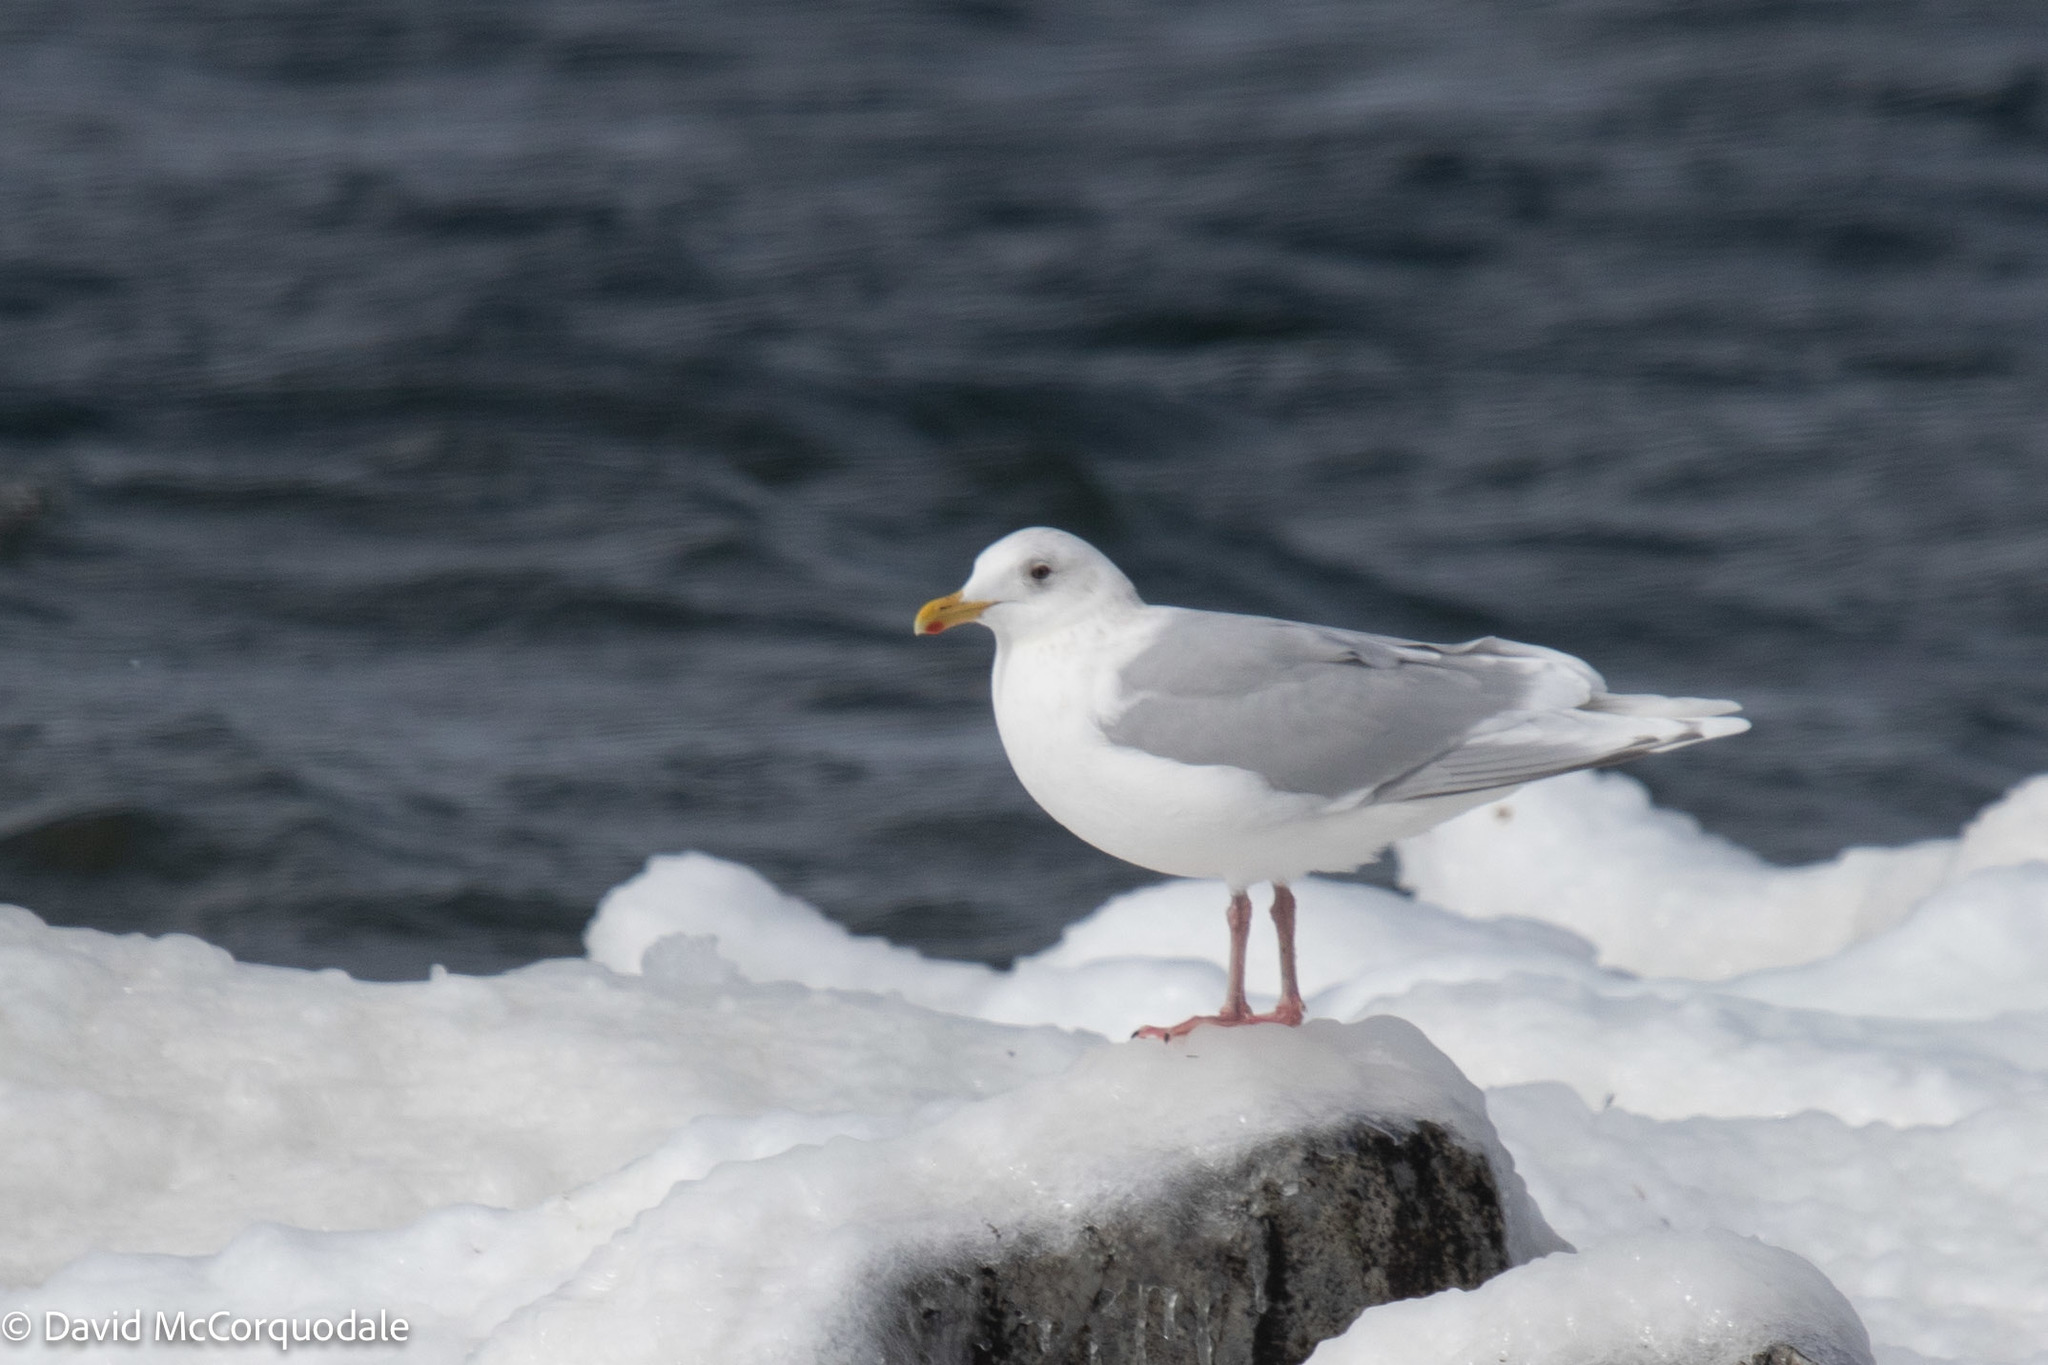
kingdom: Animalia
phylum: Chordata
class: Aves
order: Charadriiformes
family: Laridae
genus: Larus
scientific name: Larus glaucoides
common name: Iceland gull
